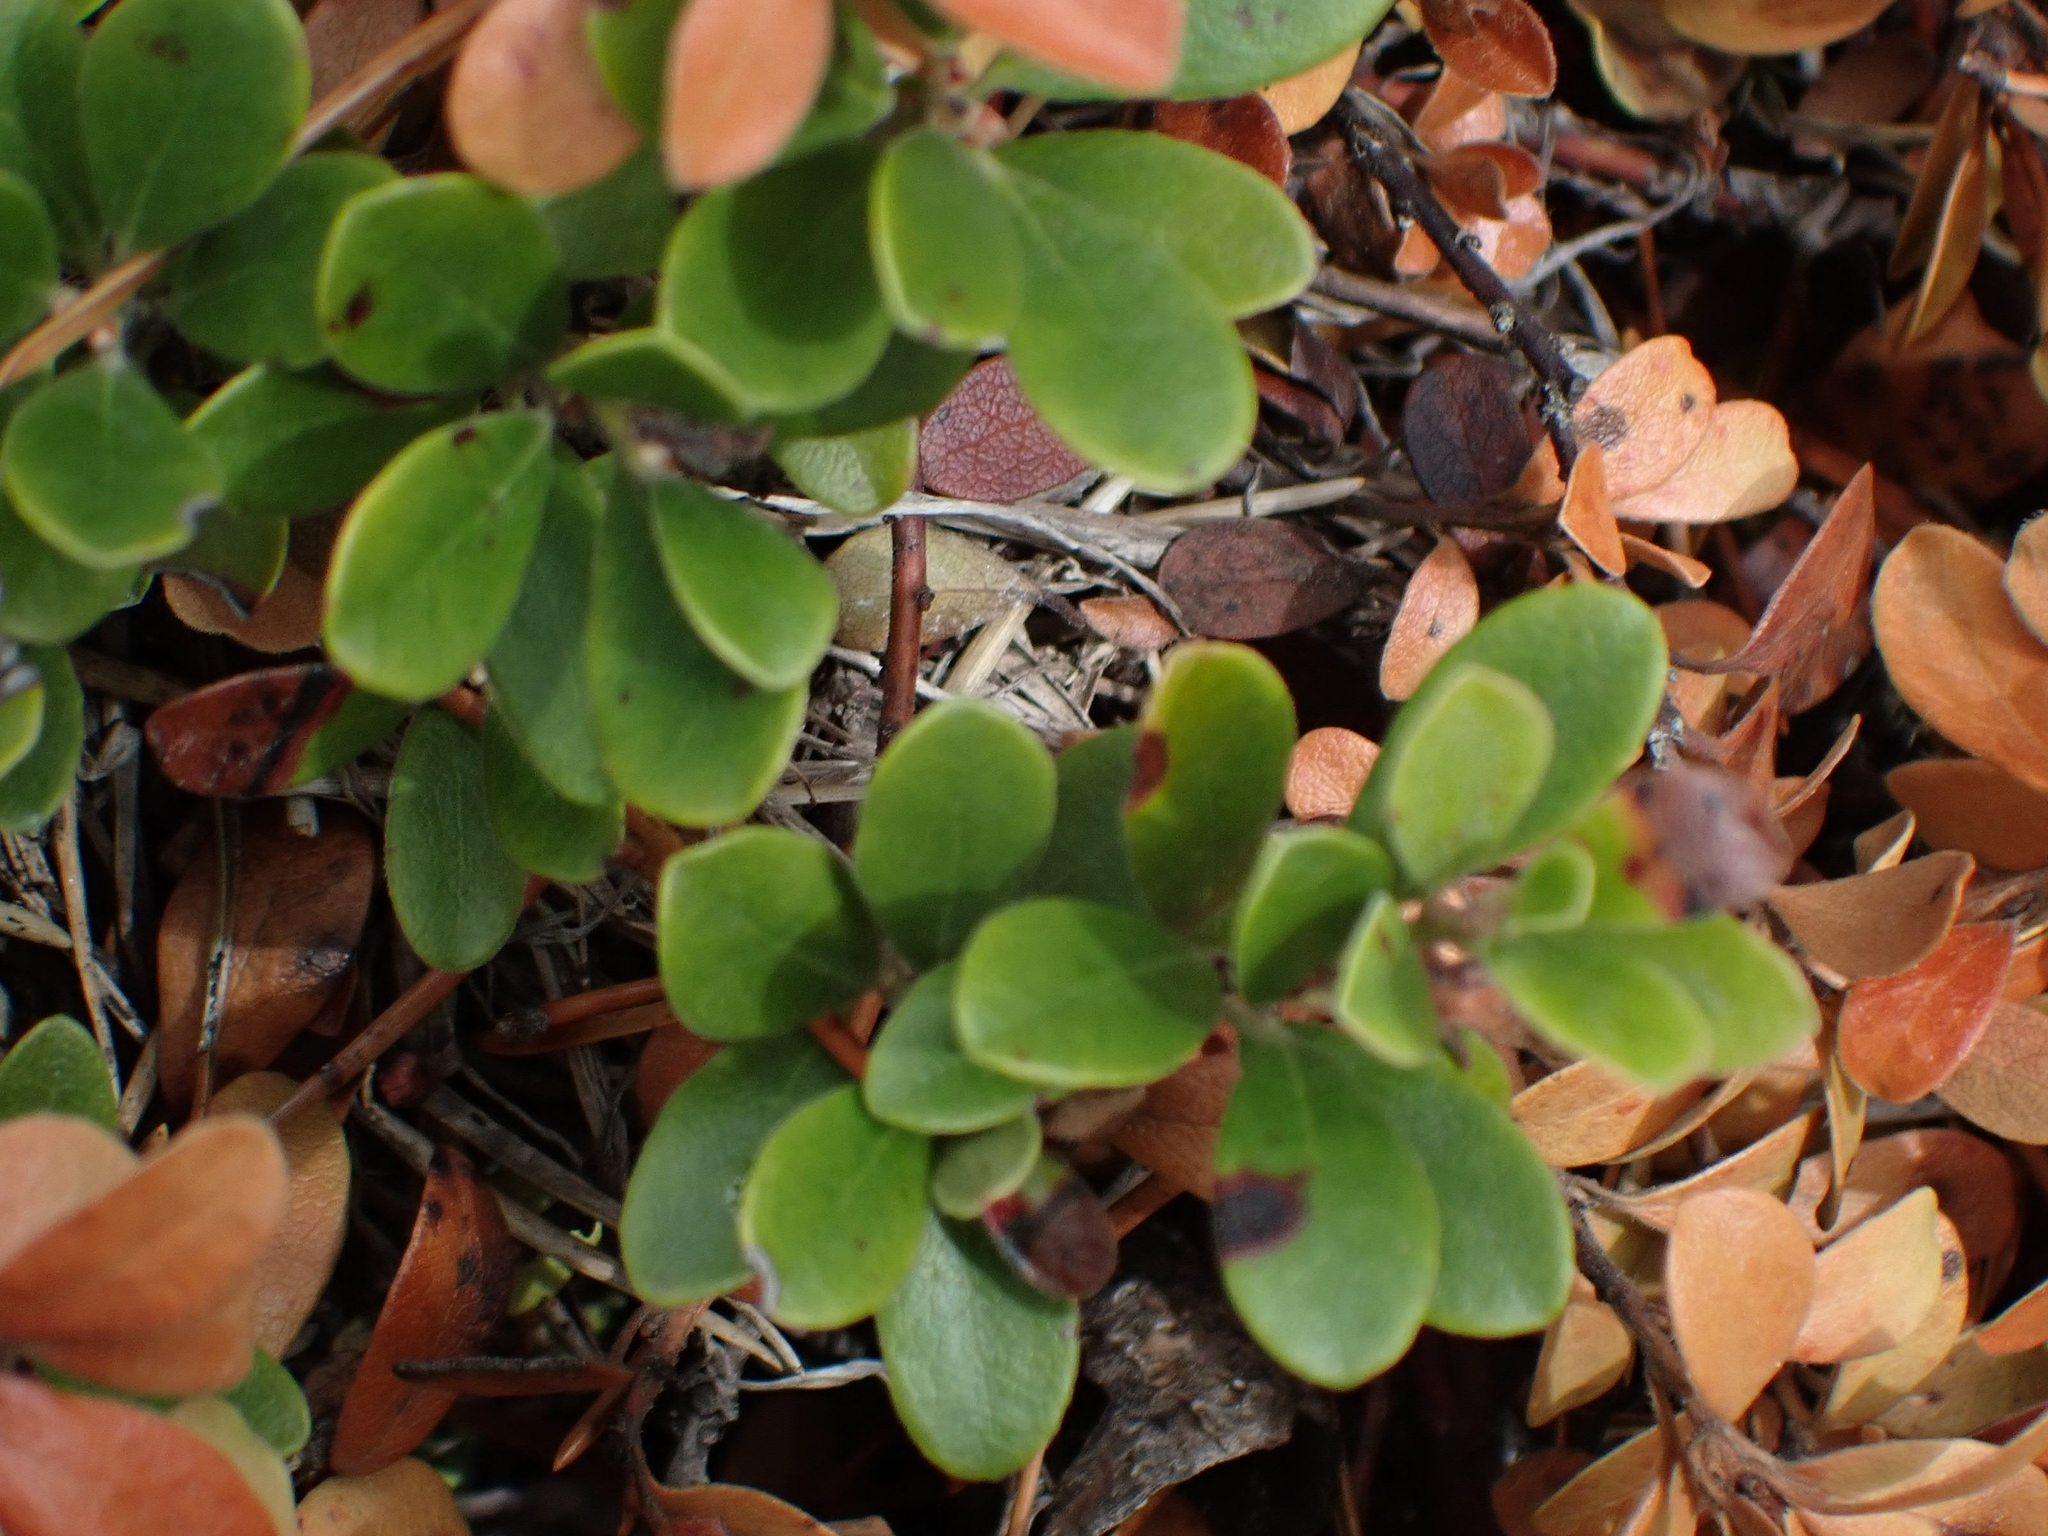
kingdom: Plantae
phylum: Tracheophyta
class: Magnoliopsida
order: Ericales
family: Ericaceae
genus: Arctostaphylos
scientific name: Arctostaphylos uva-ursi
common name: Bearberry
